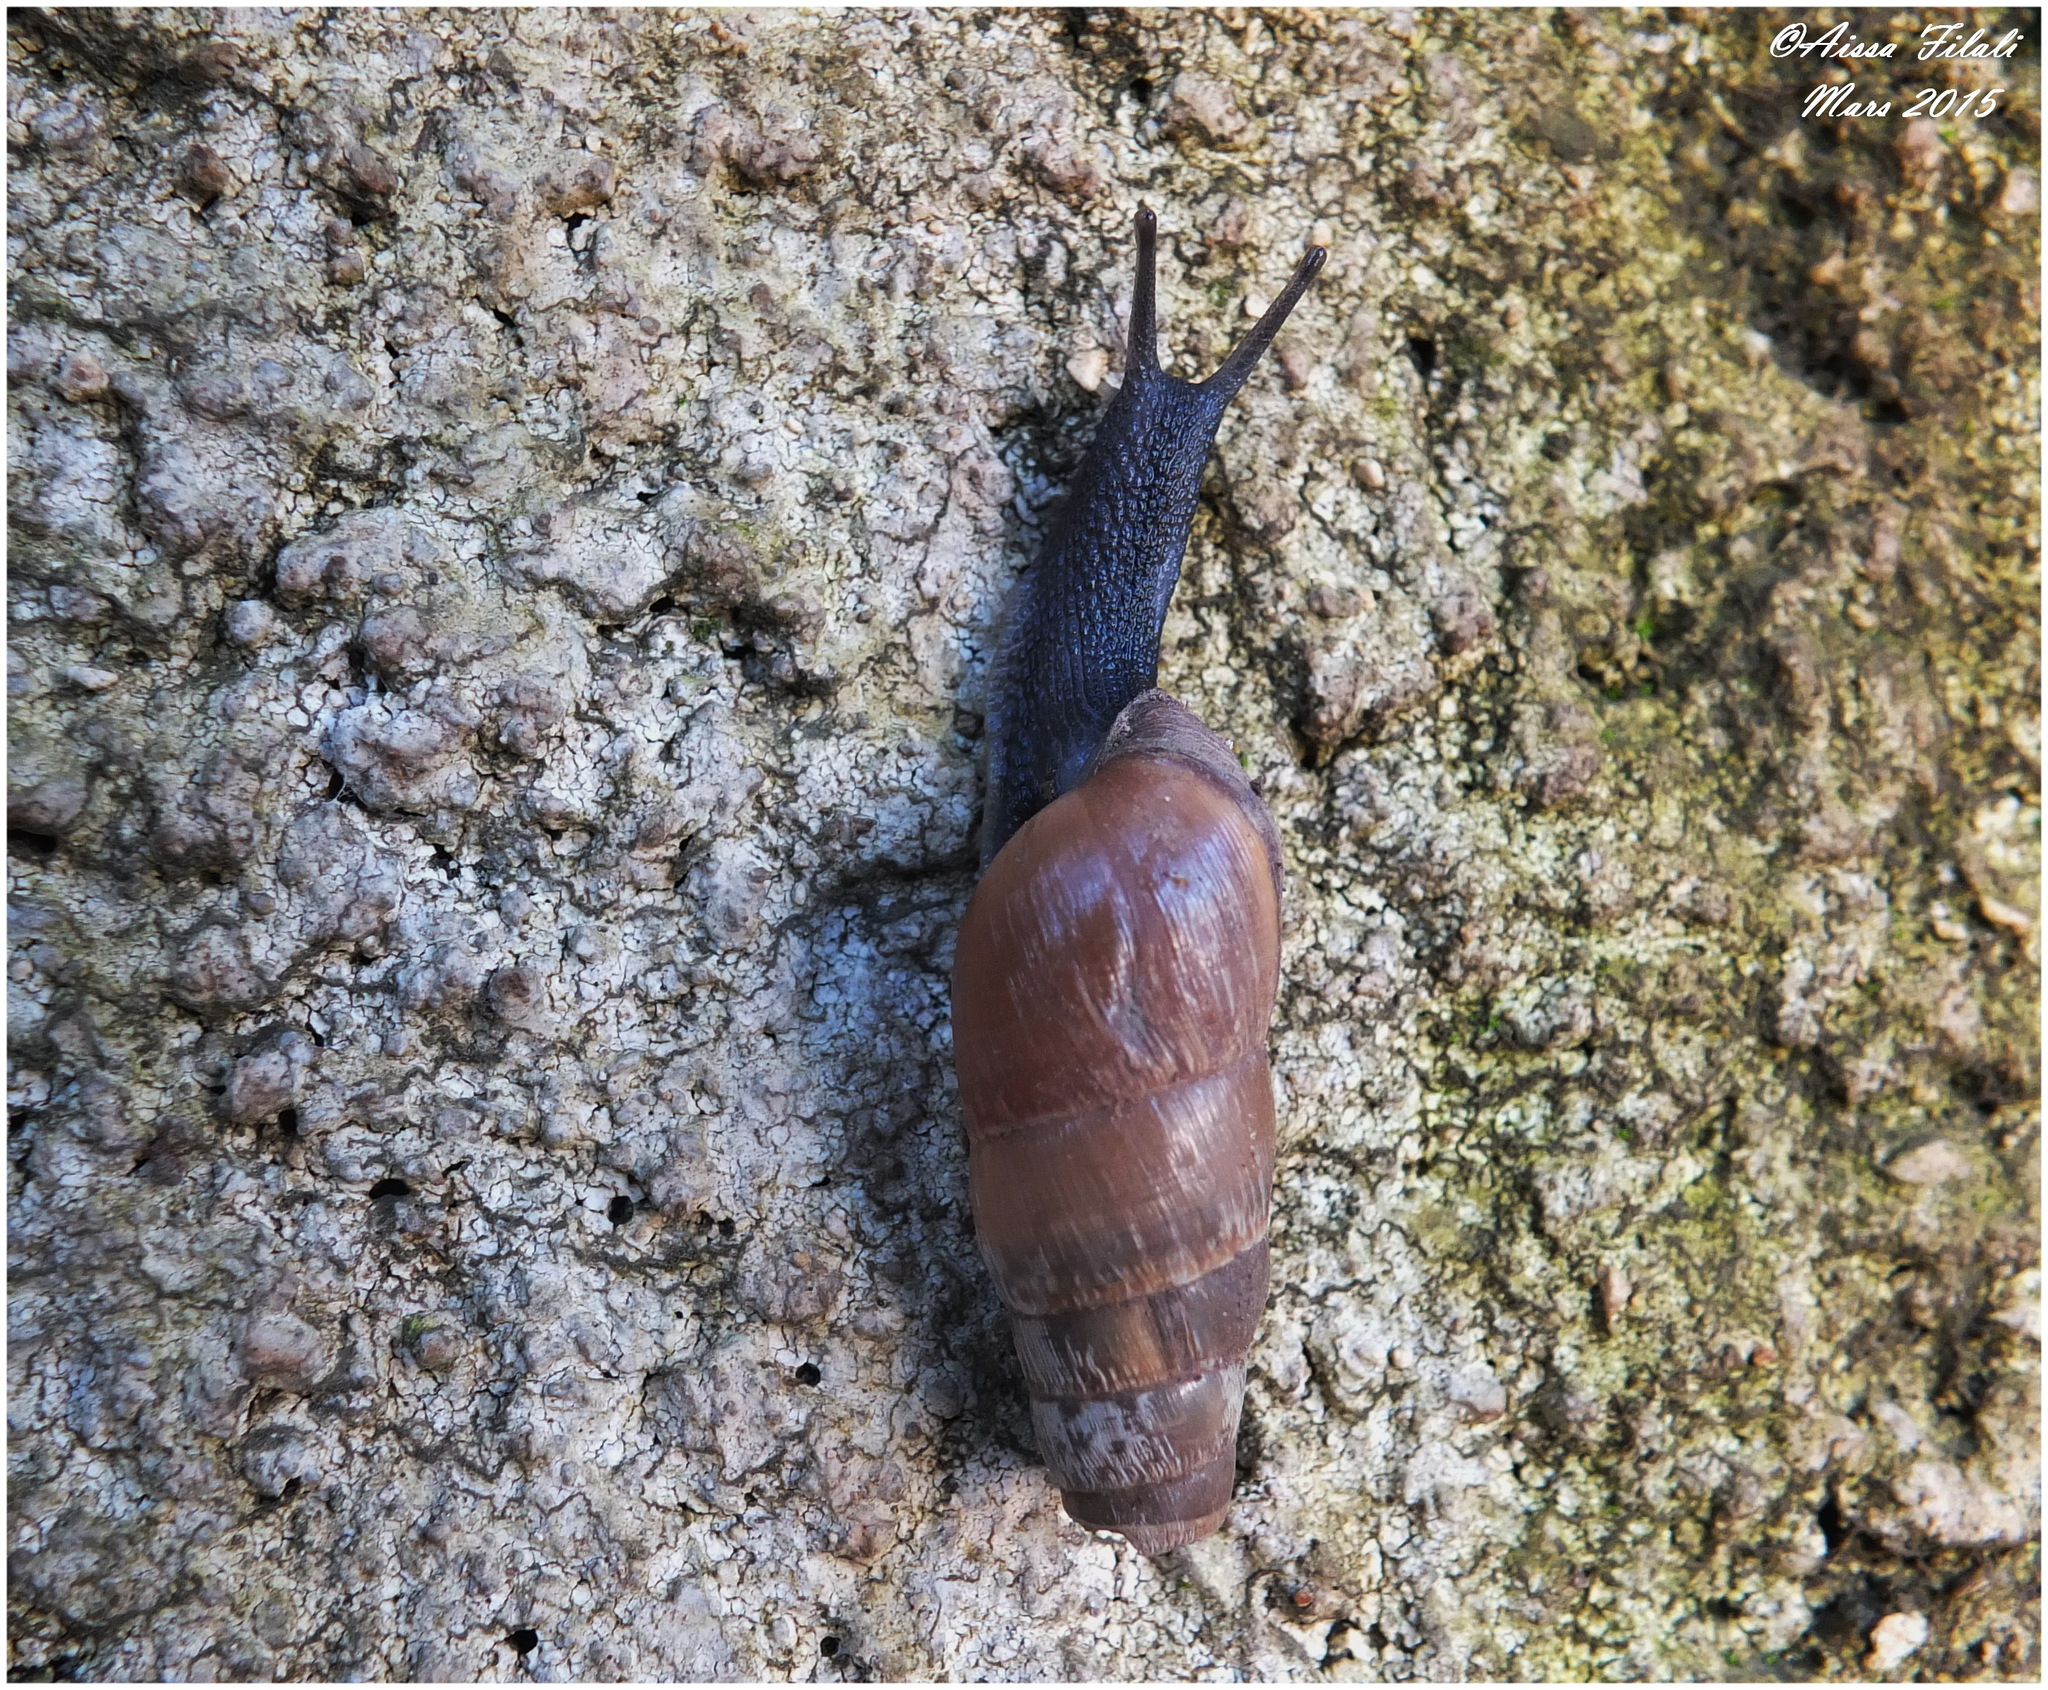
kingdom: Animalia
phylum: Mollusca
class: Gastropoda
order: Stylommatophora
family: Achatinidae
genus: Rumina
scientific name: Rumina decollata
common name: Decollate snail
